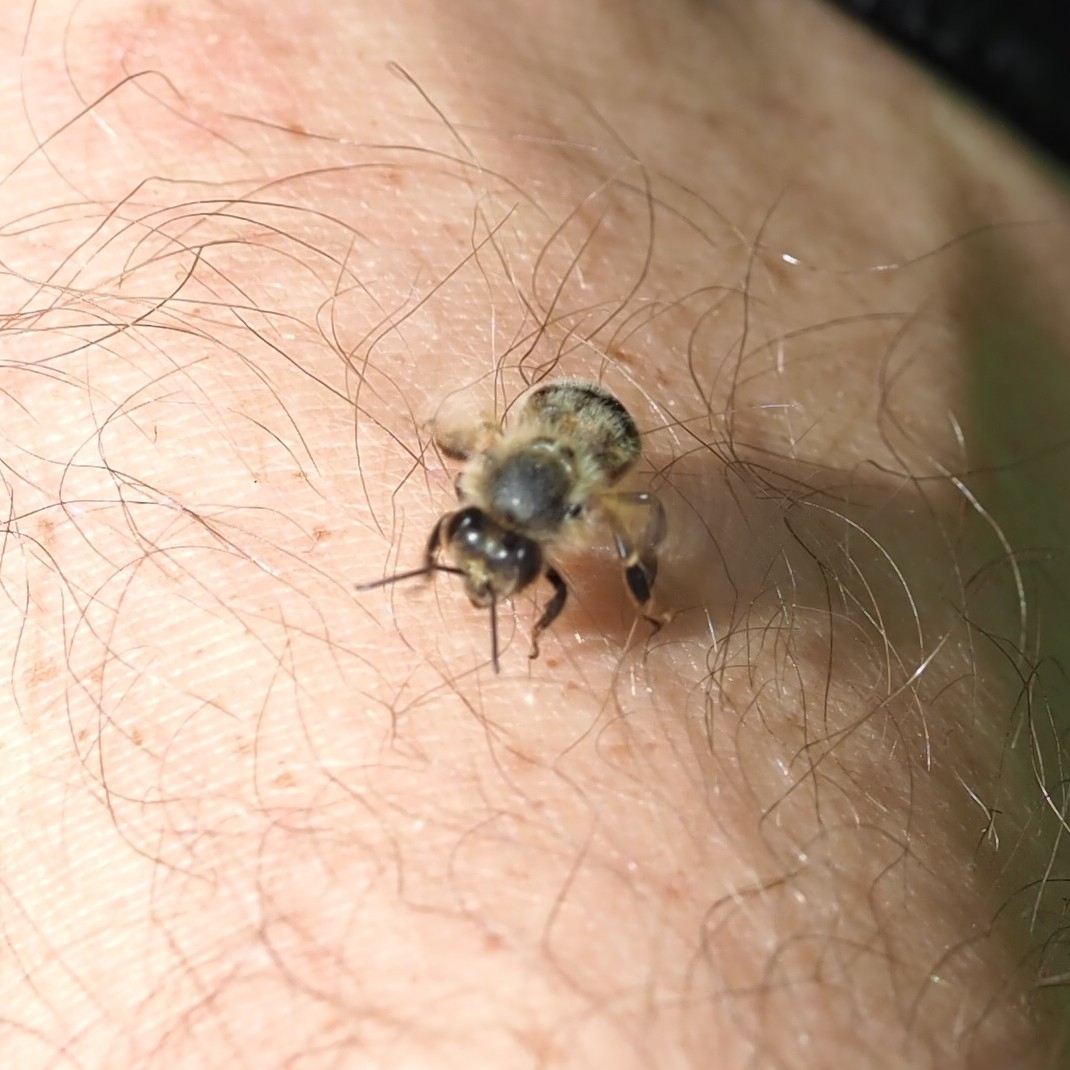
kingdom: Animalia
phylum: Arthropoda
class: Insecta
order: Hymenoptera
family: Apidae
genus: Apis
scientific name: Apis mellifera
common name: Honey bee
